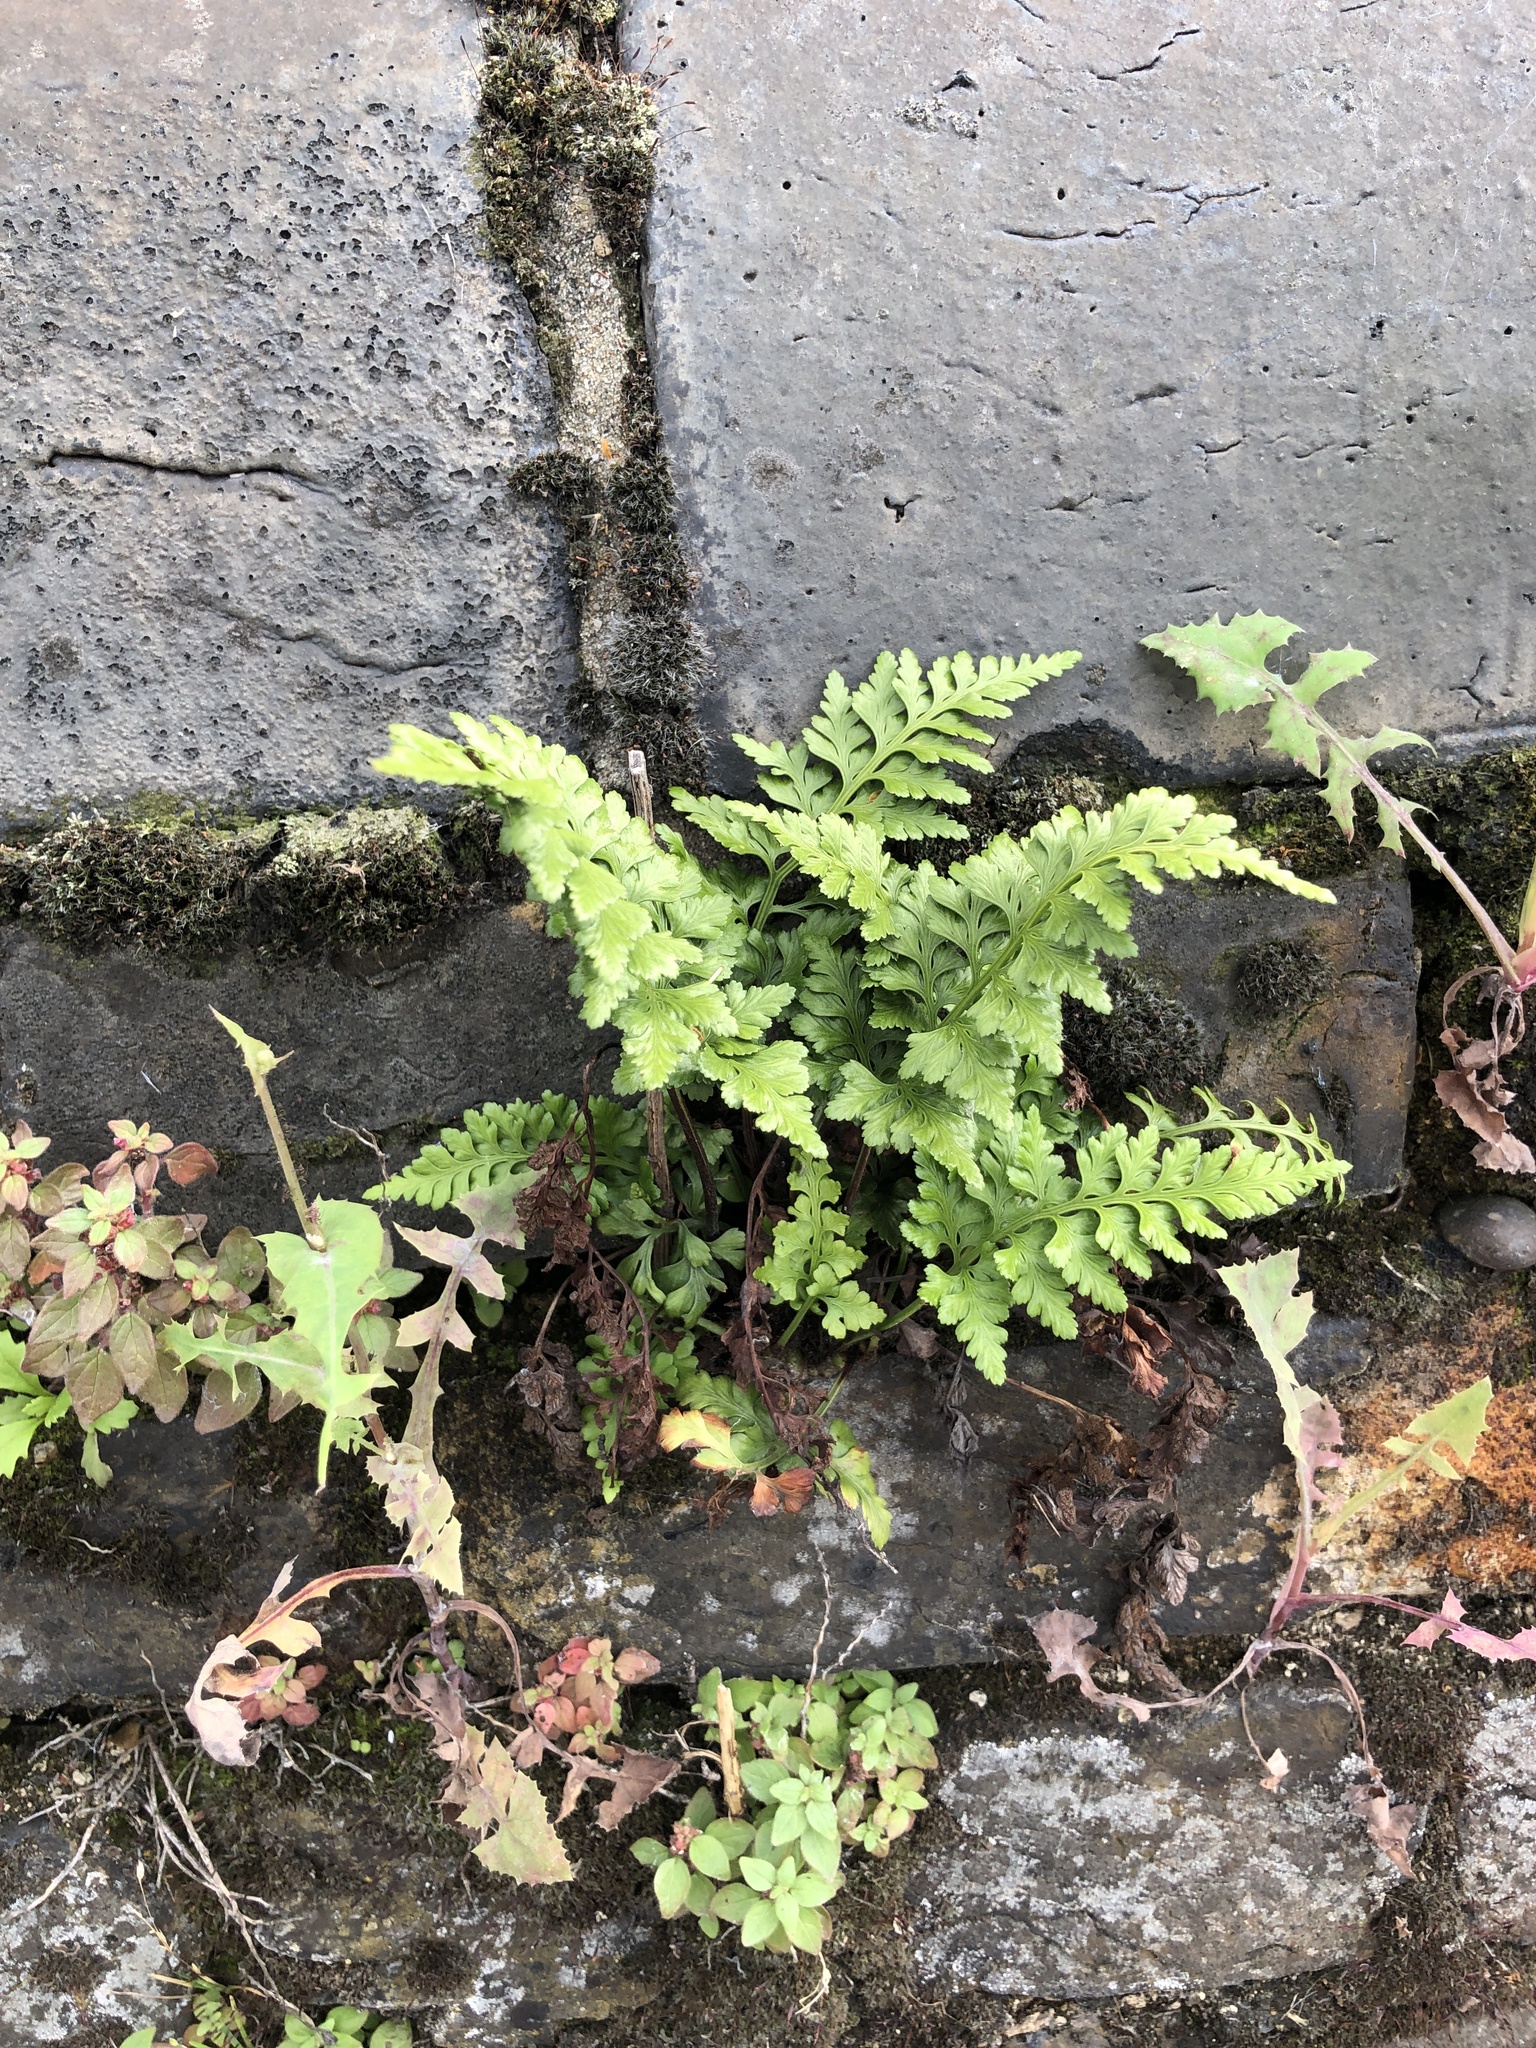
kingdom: Plantae
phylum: Tracheophyta
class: Polypodiopsida
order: Polypodiales
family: Aspleniaceae
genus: Asplenium
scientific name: Asplenium adiantum-nigrum
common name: Black spleenwort
